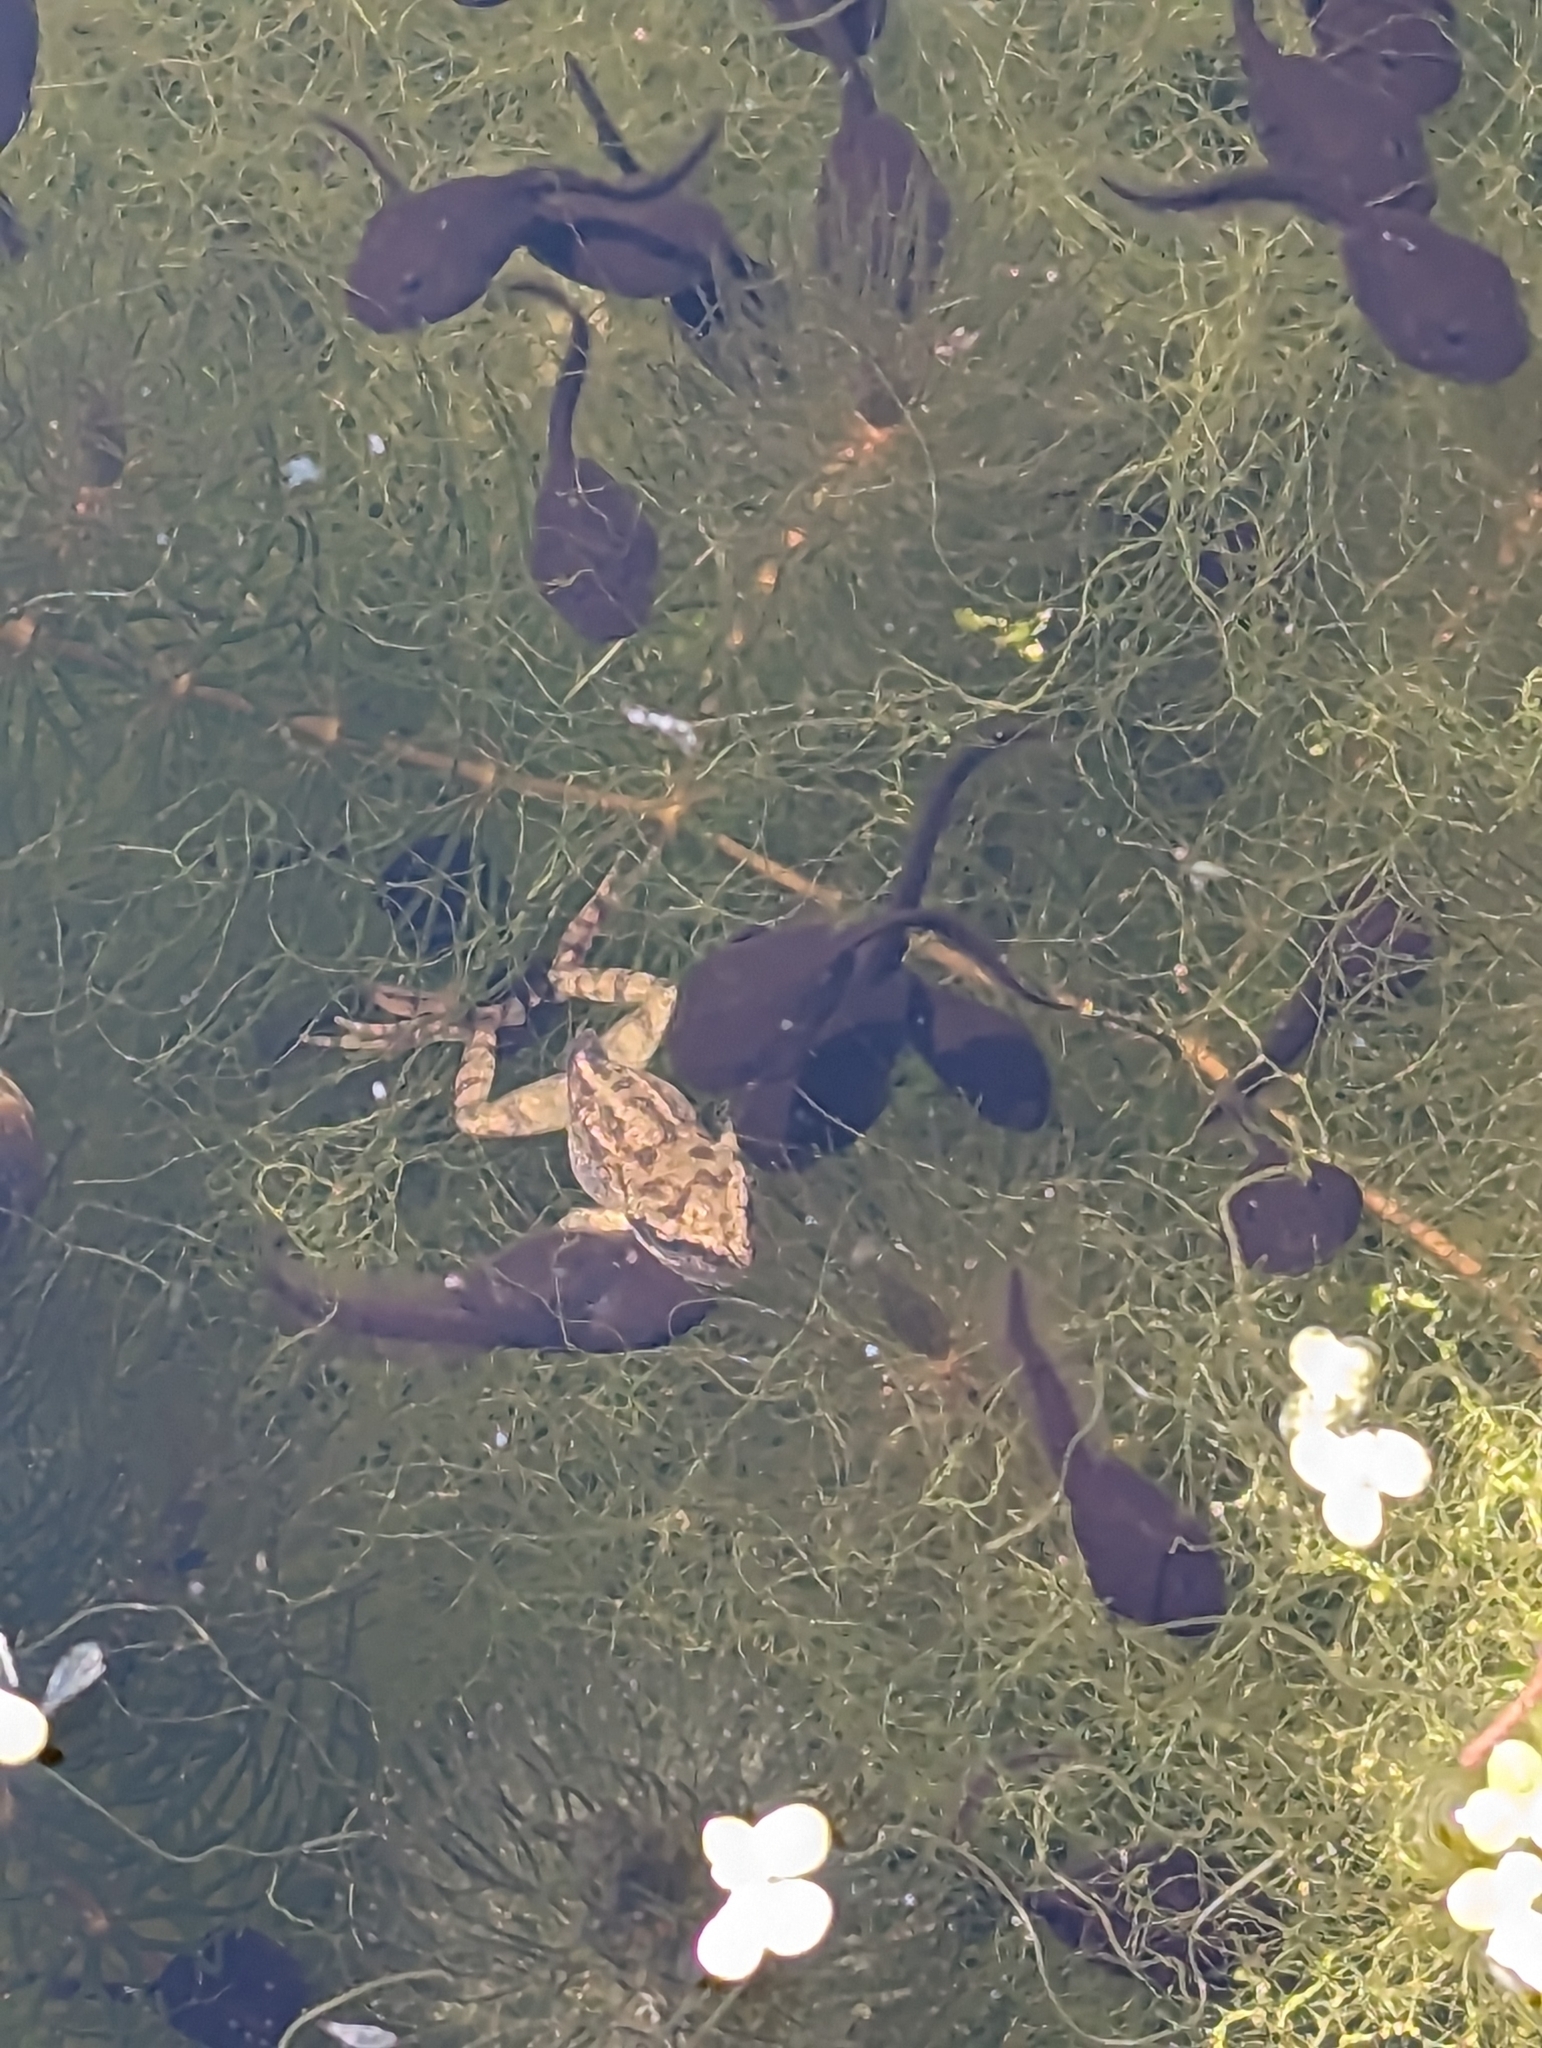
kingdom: Animalia
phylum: Chordata
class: Amphibia
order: Anura
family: Ranidae
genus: Rana
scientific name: Rana temporaria
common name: Common frog
